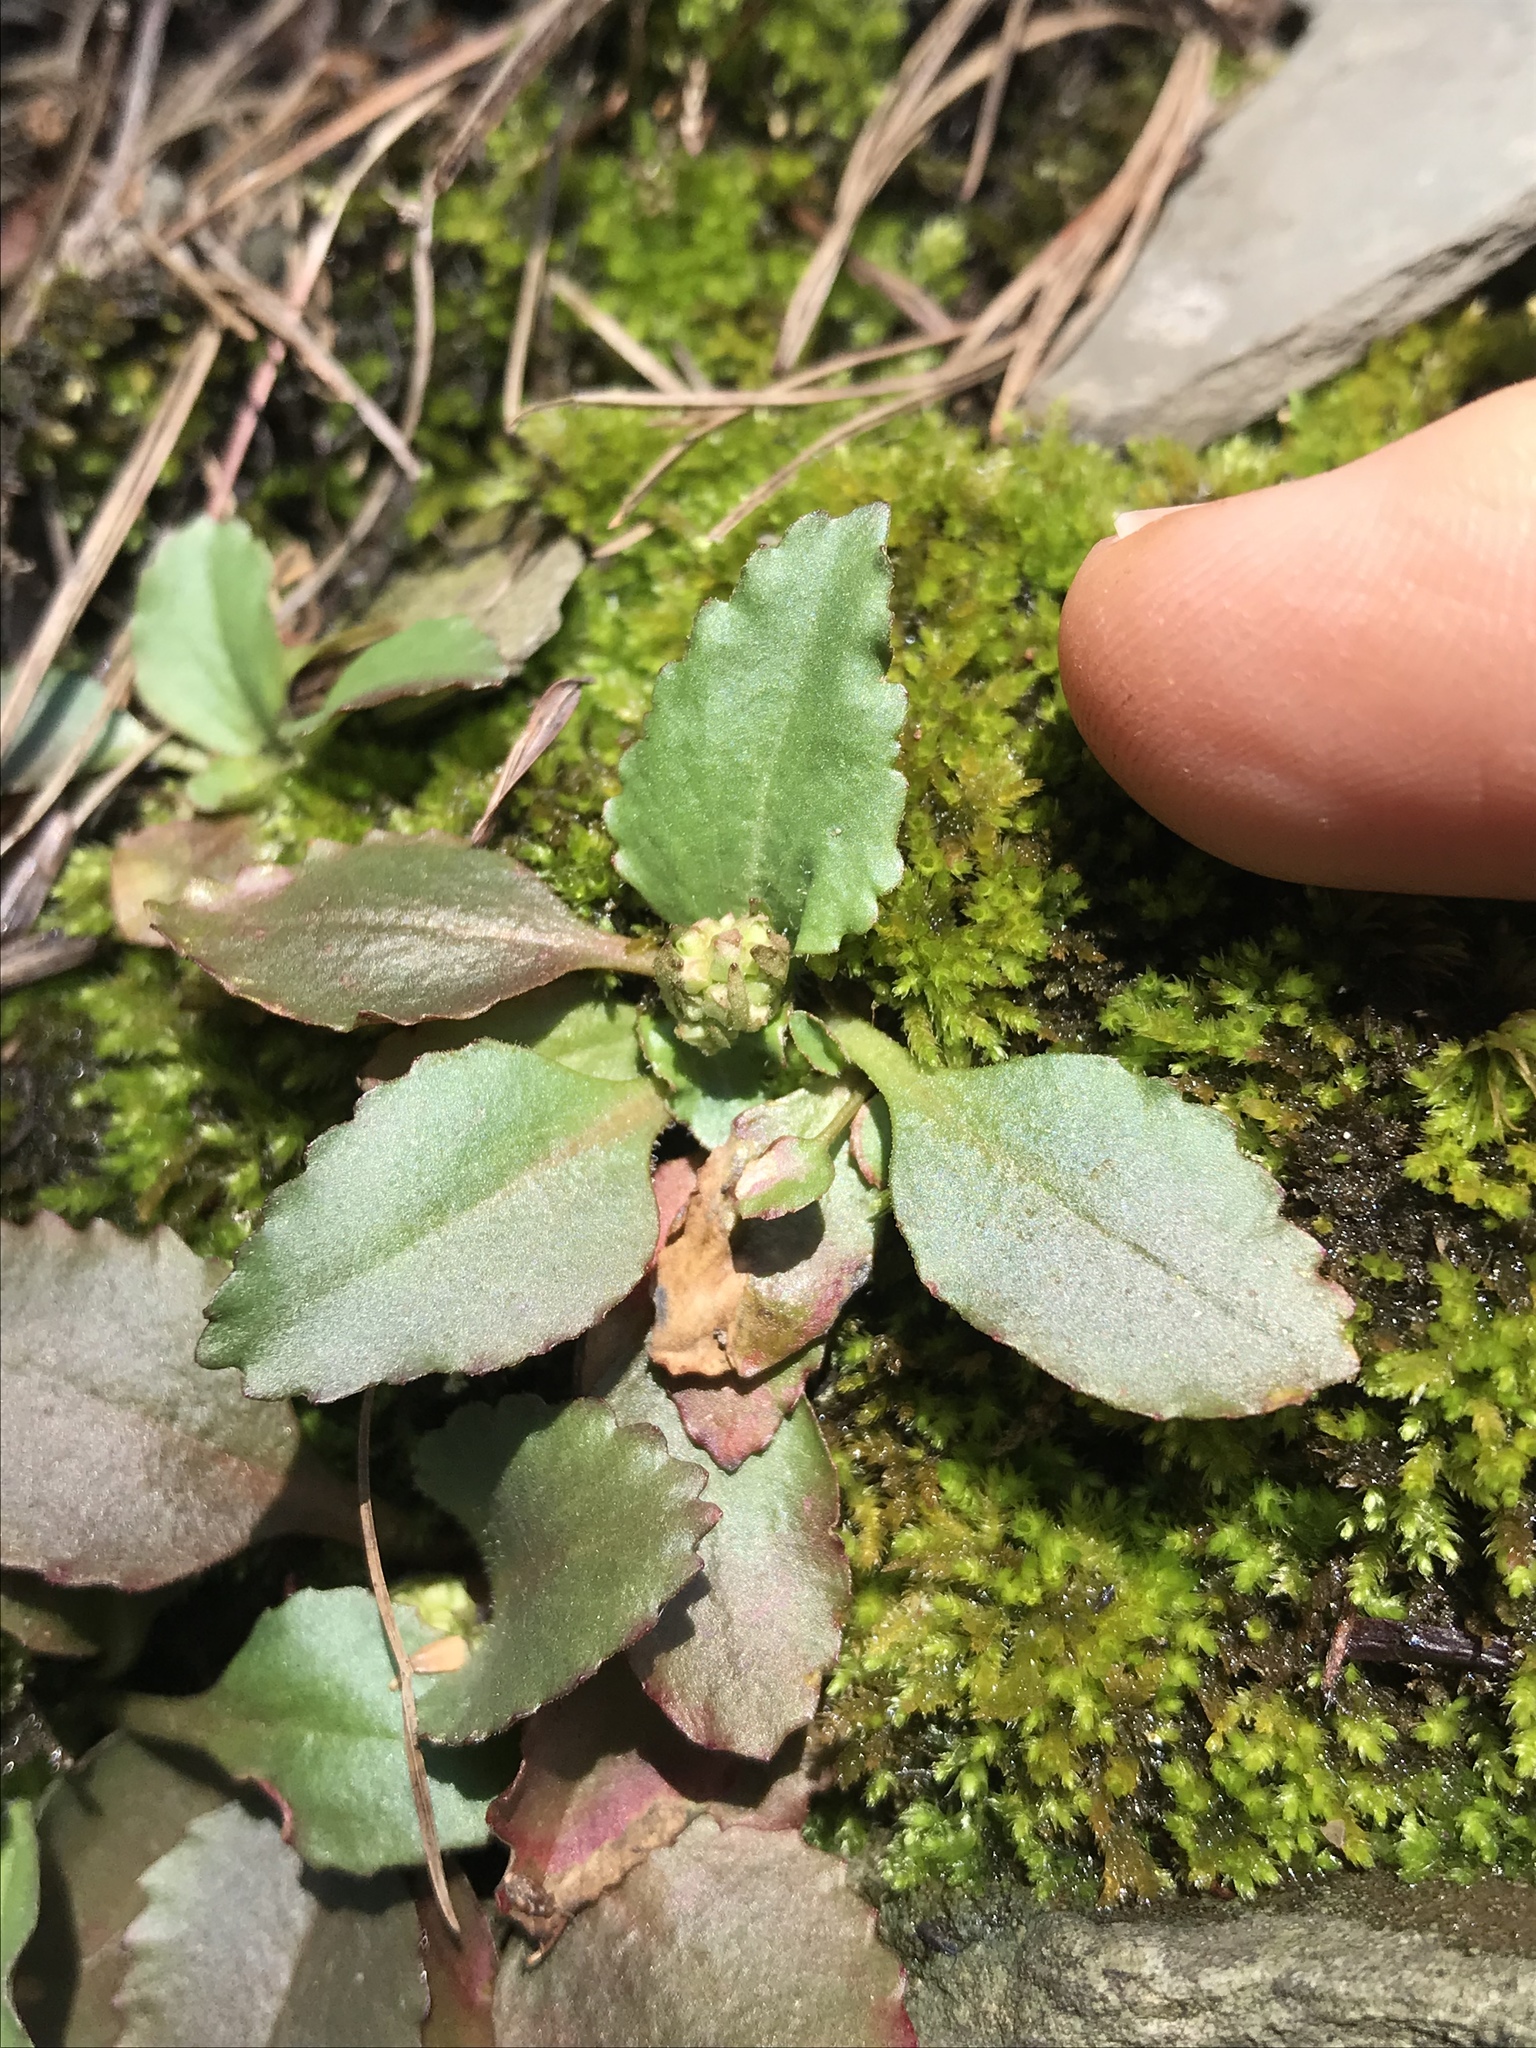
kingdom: Plantae
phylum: Tracheophyta
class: Magnoliopsida
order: Saxifragales
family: Saxifragaceae
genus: Micranthes
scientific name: Micranthes virginiensis
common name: Early saxifrage
